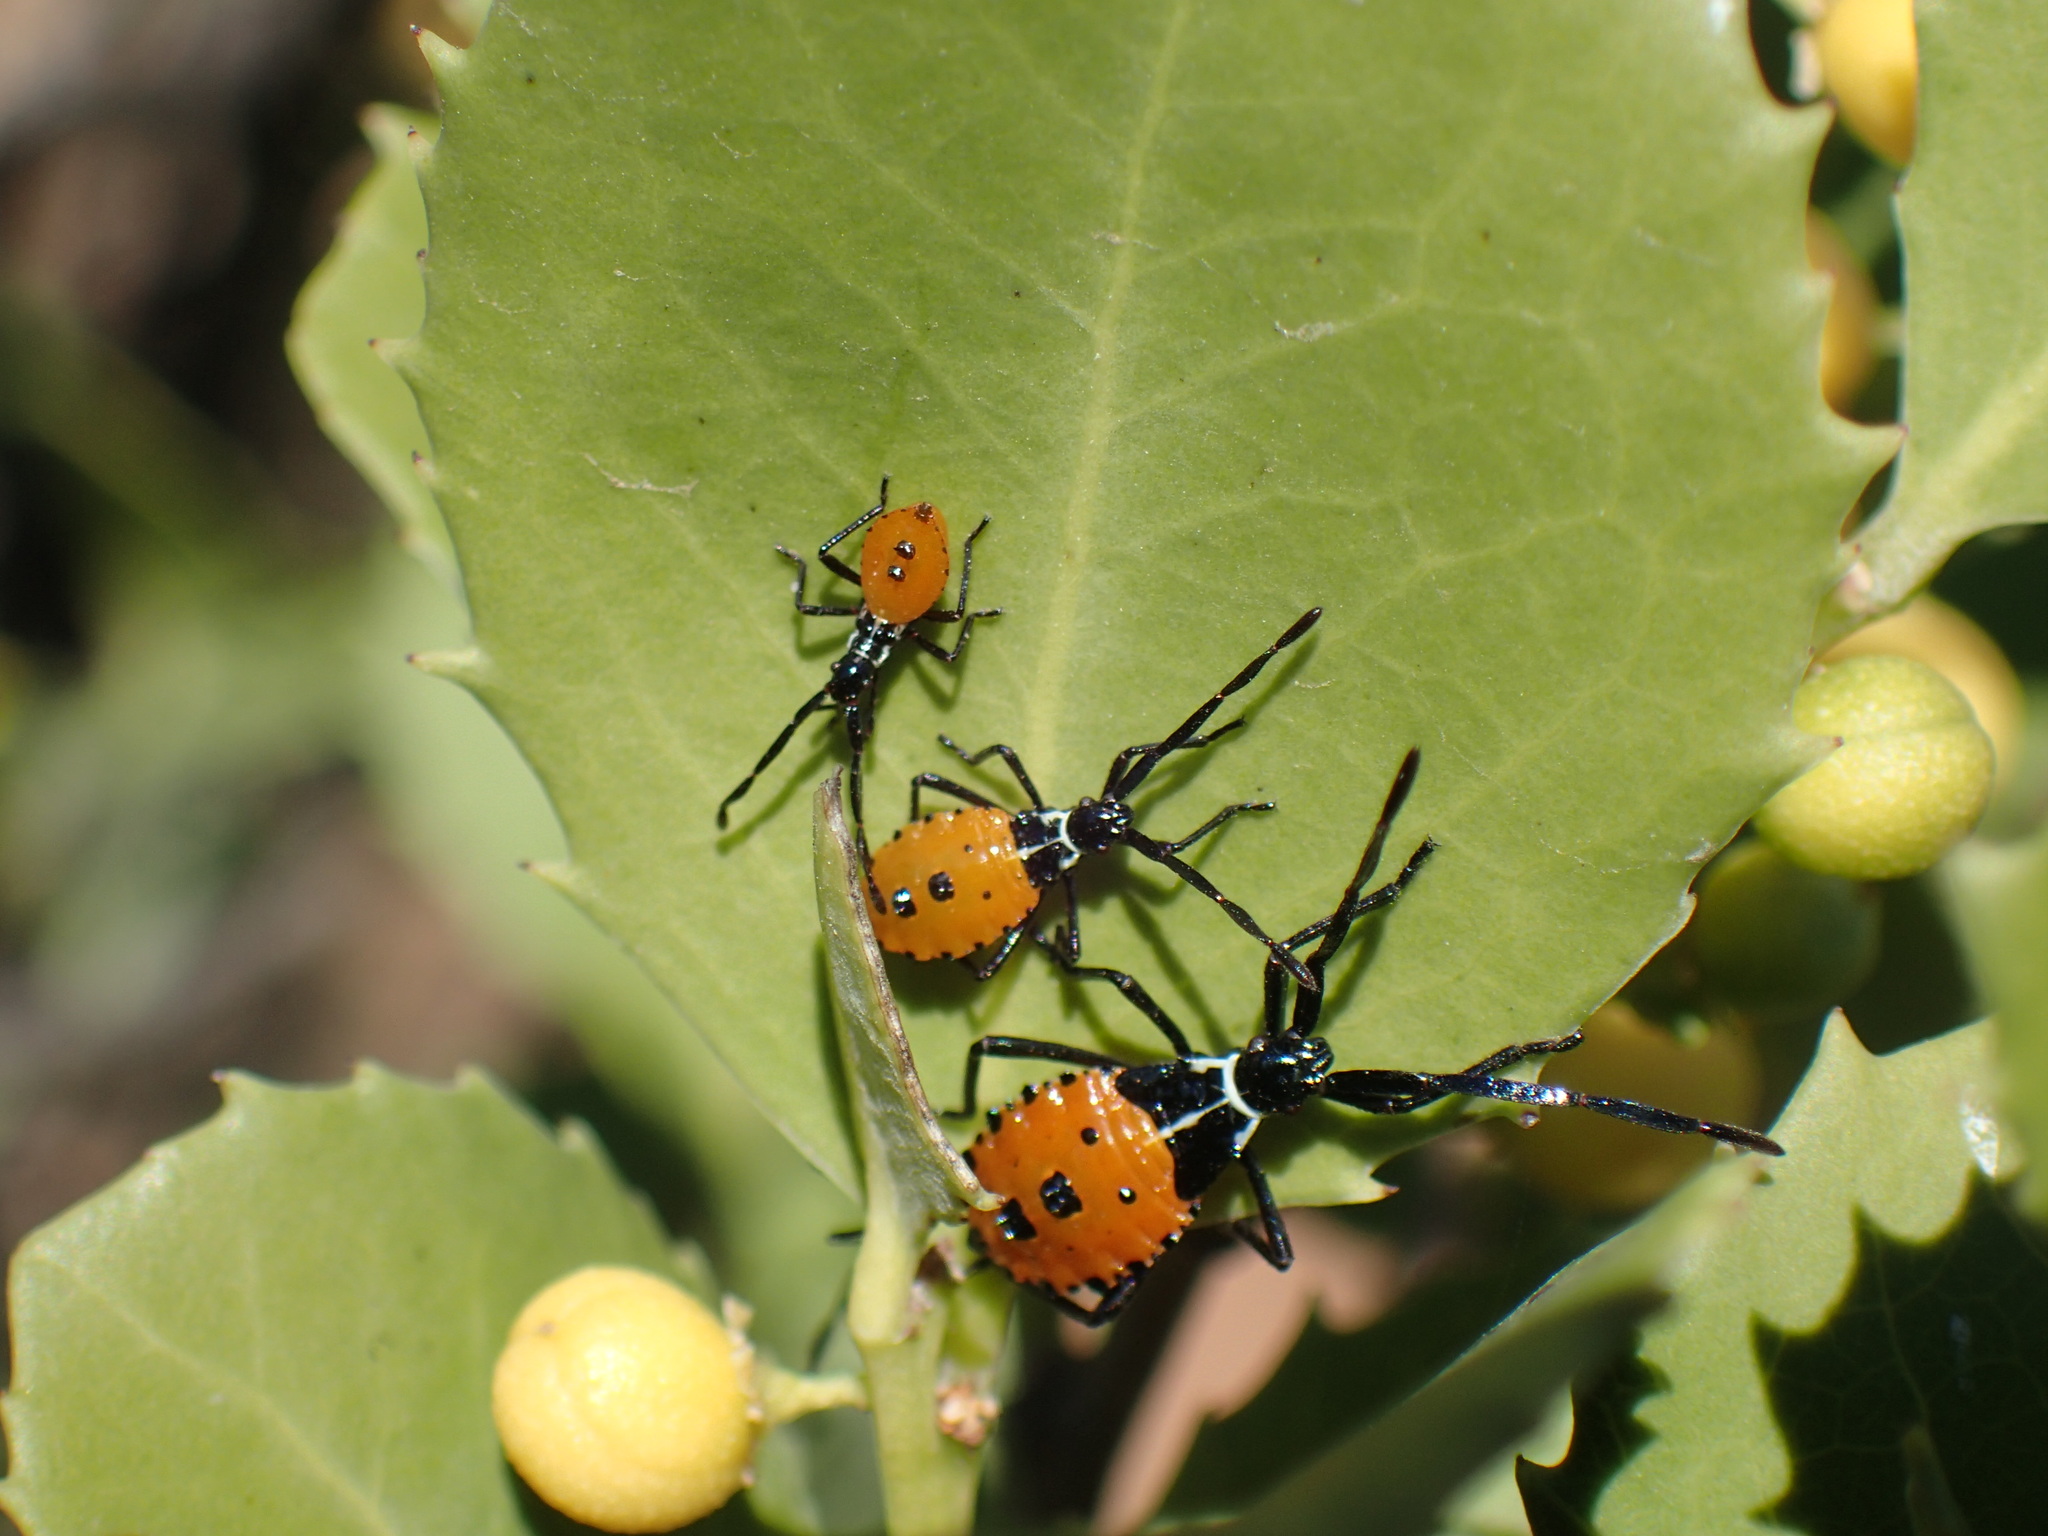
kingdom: Animalia
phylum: Arthropoda
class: Insecta
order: Hemiptera
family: Coreidae
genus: Plinachtus
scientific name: Plinachtus pungens
